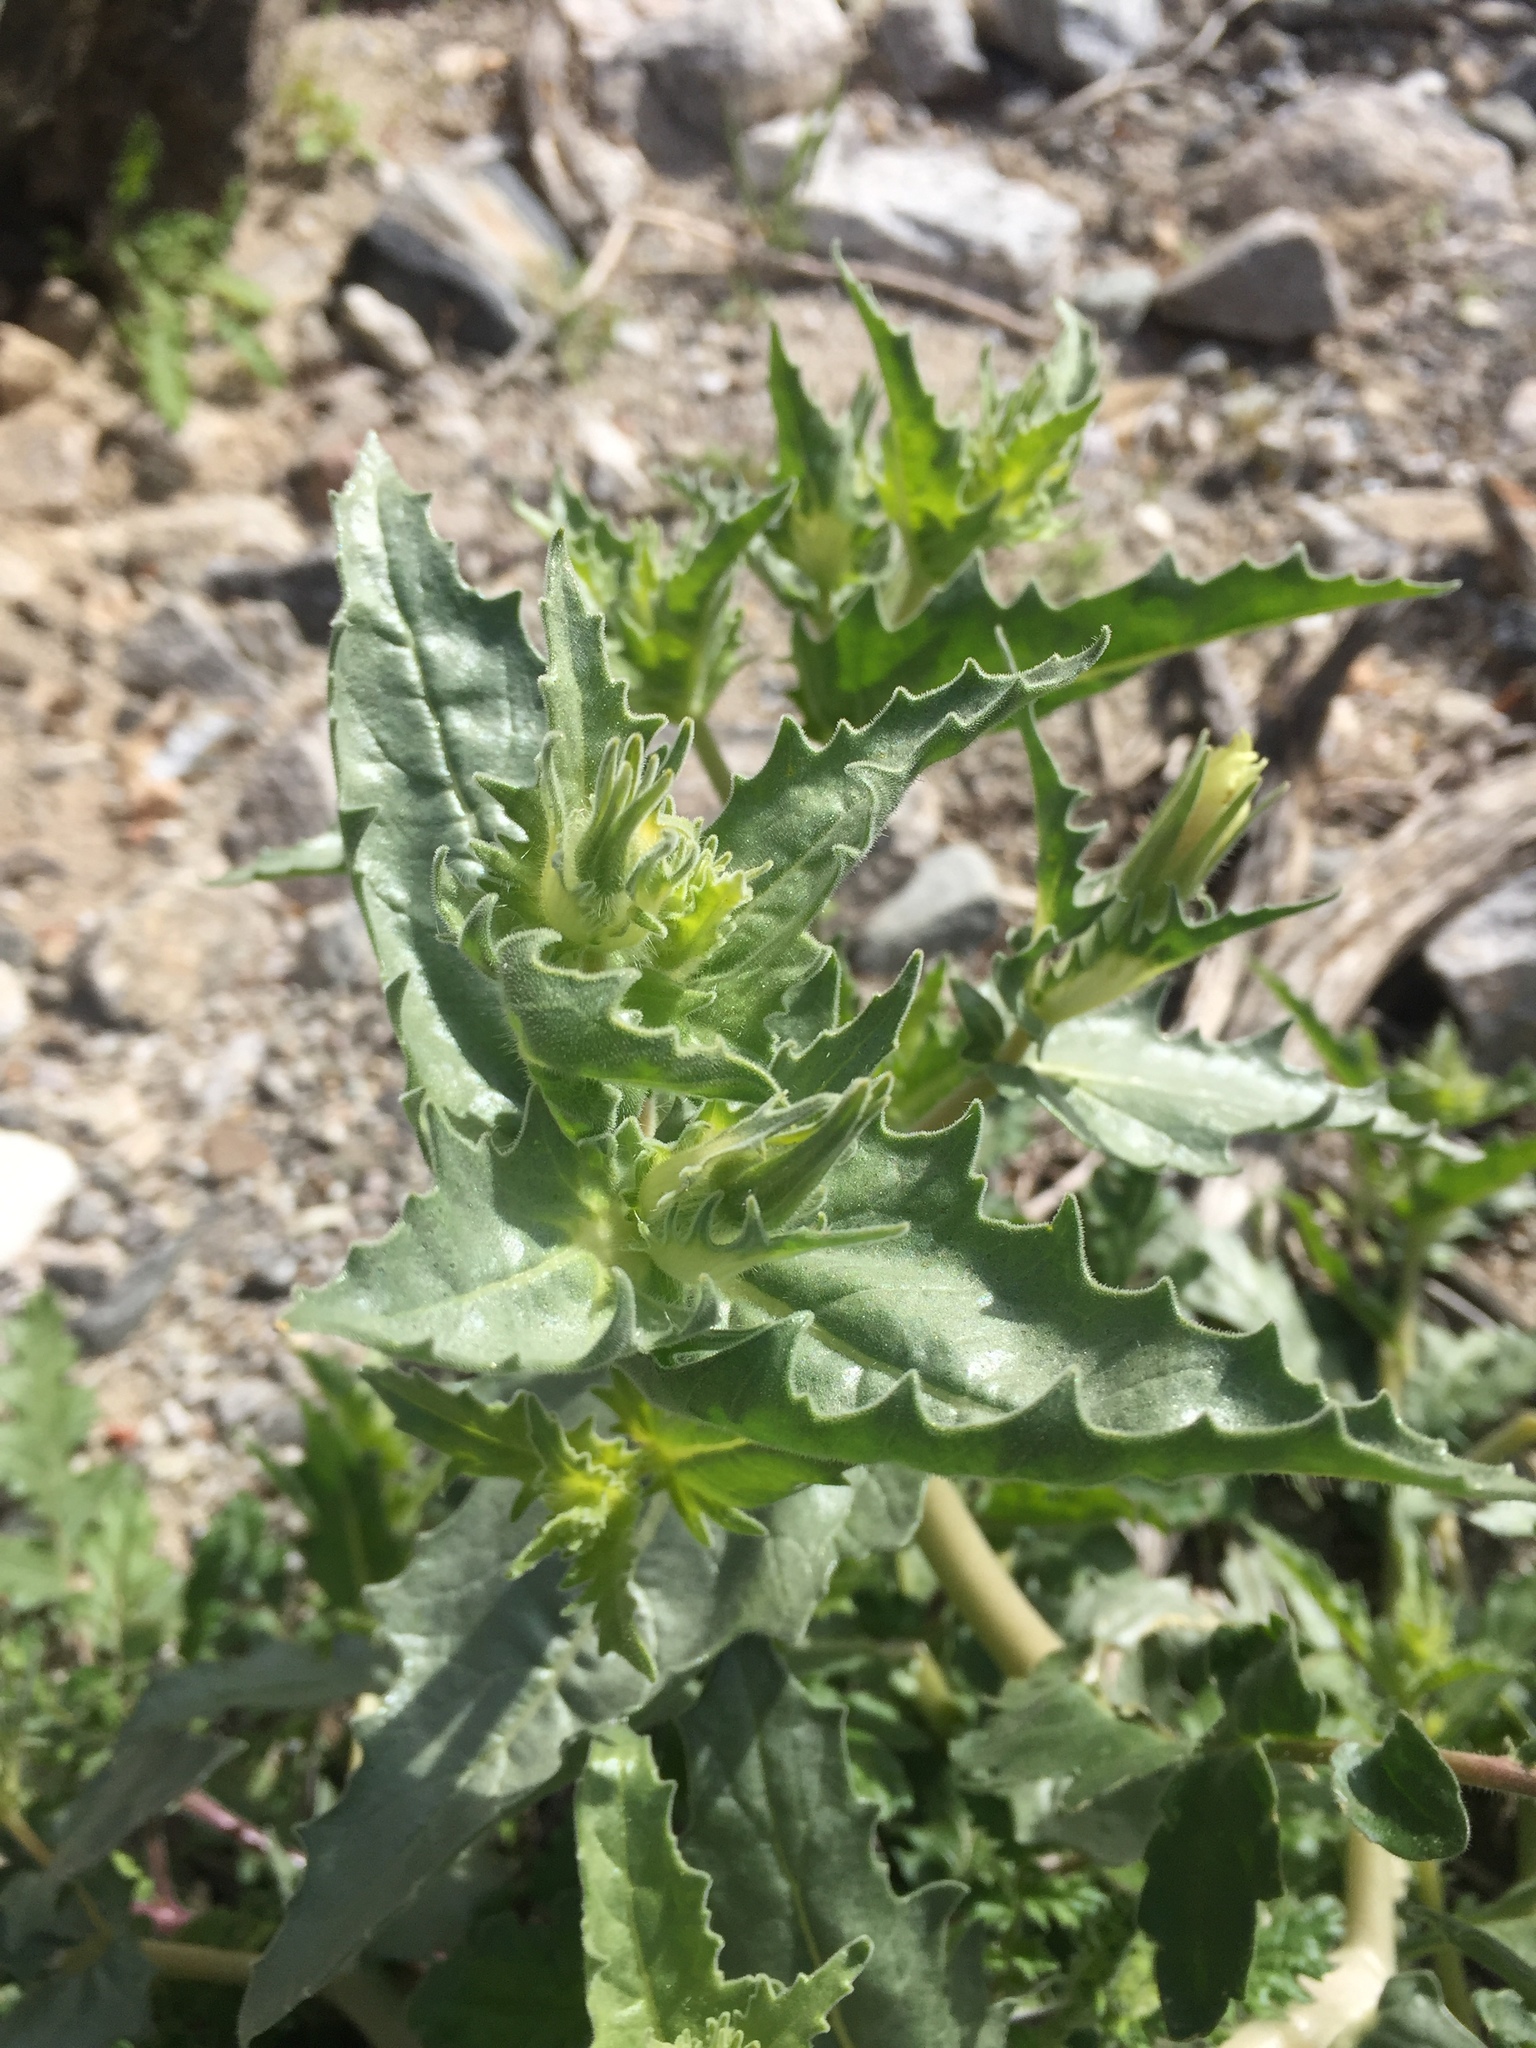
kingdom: Plantae
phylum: Tracheophyta
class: Magnoliopsida
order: Cornales
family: Loasaceae
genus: Mentzelia
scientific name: Mentzelia involucrata
